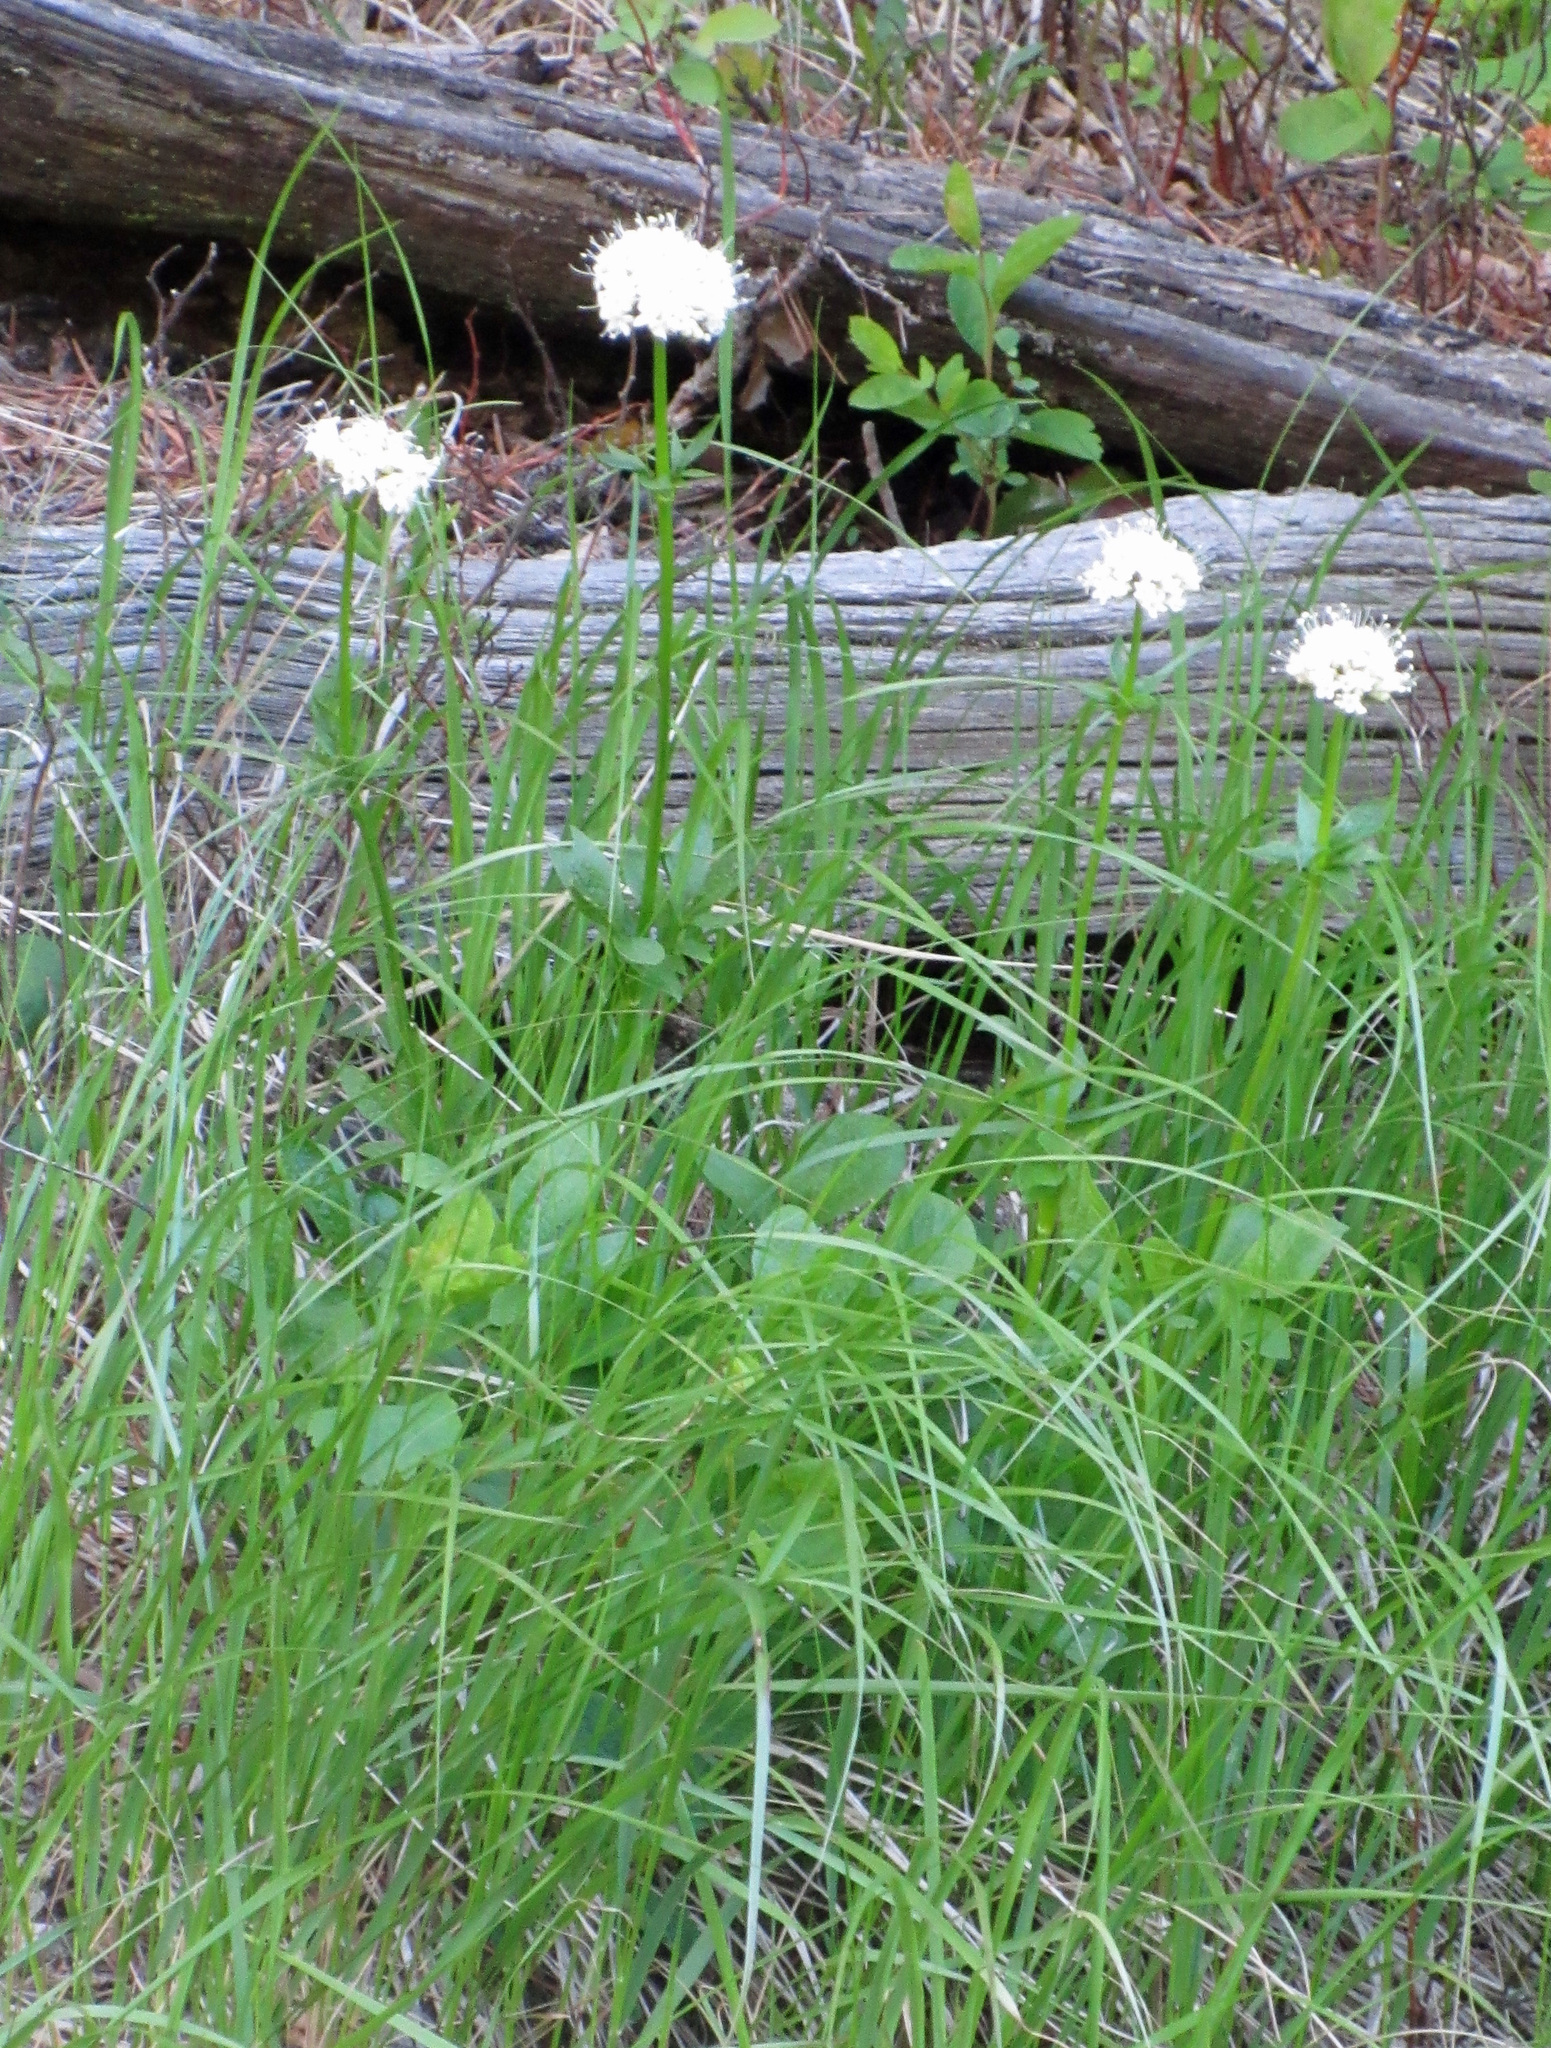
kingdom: Plantae
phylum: Tracheophyta
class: Magnoliopsida
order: Dipsacales
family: Caprifoliaceae
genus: Valeriana
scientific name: Valeriana sitchensis
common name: Pacific valerian
